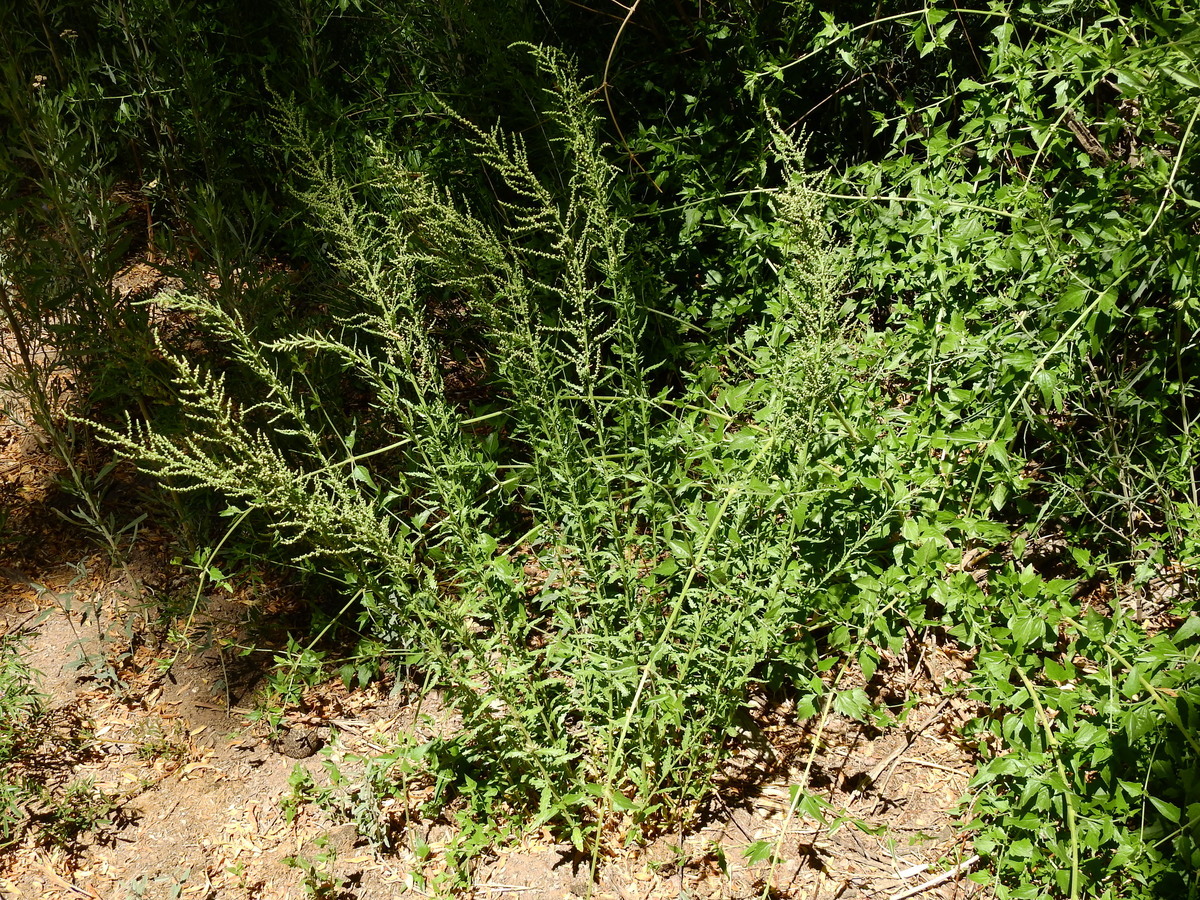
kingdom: Plantae
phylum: Tracheophyta
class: Magnoliopsida
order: Caryophyllales
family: Amaranthaceae
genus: Dysphania
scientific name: Dysphania ambrosioides
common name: Wormseed
